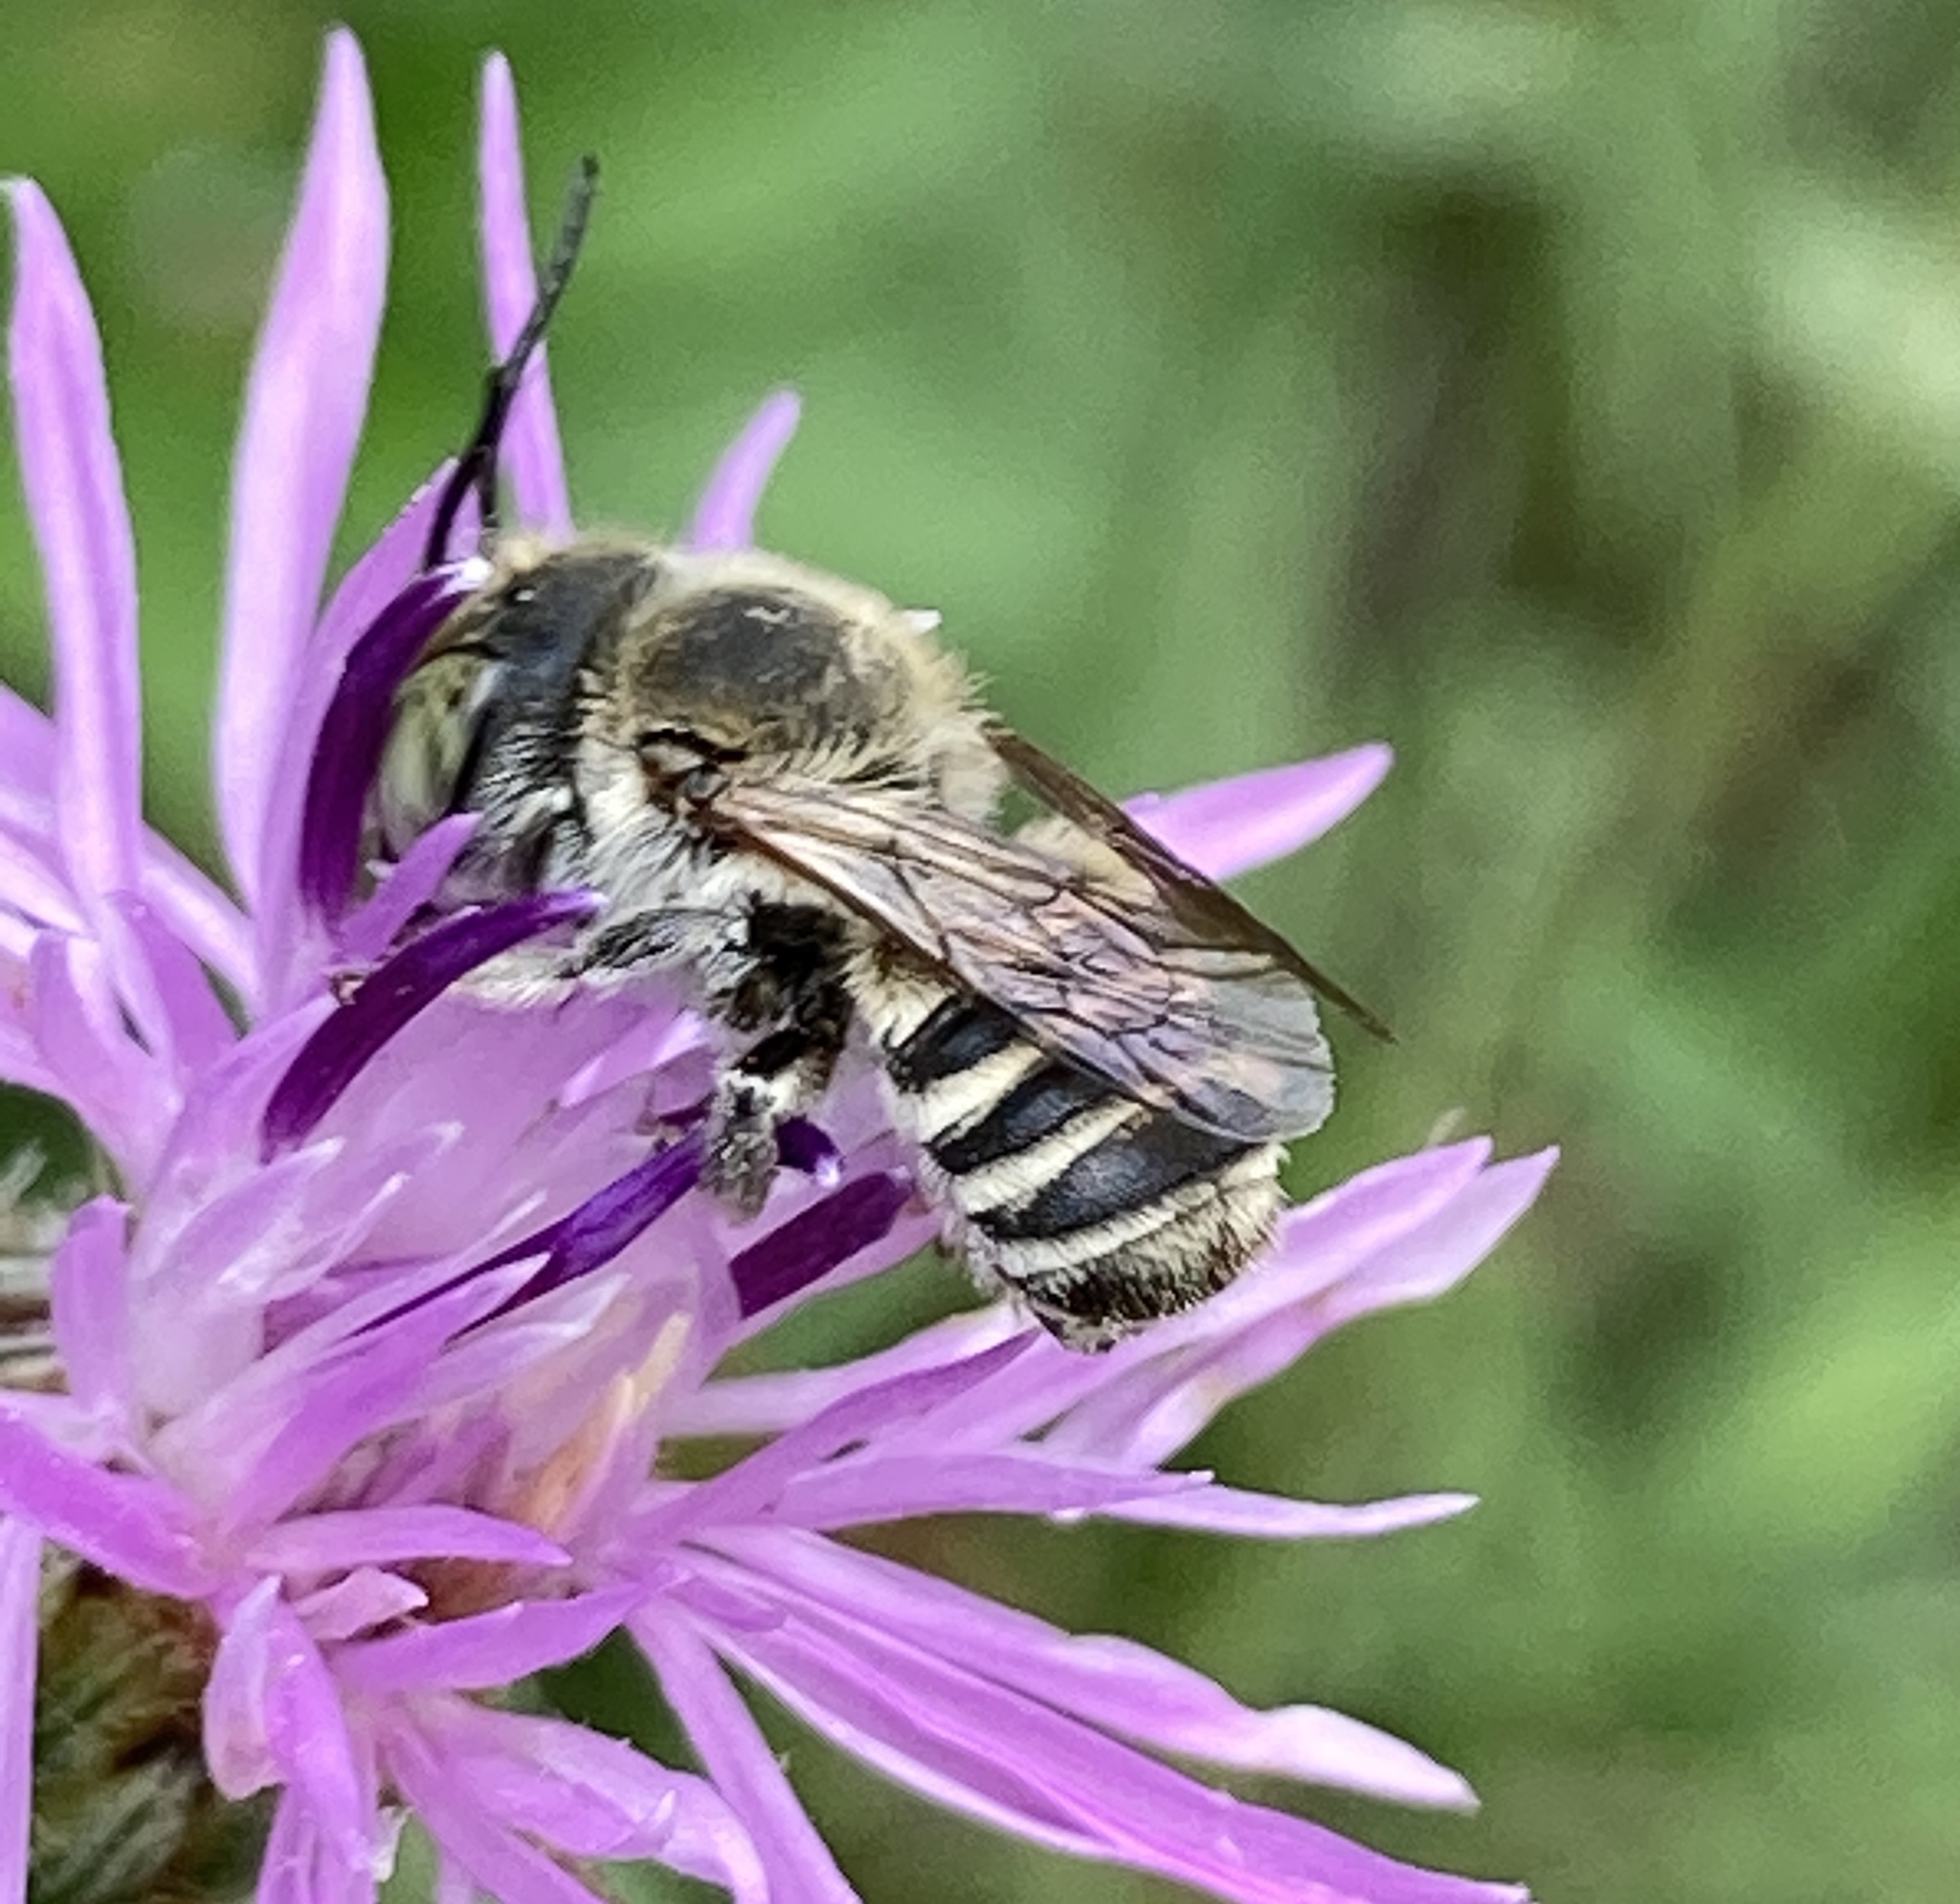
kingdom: Animalia
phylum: Arthropoda
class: Insecta
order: Hymenoptera
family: Megachilidae
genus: Megachile
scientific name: Megachile rotundata
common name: Alfalfa leafcutting bee
